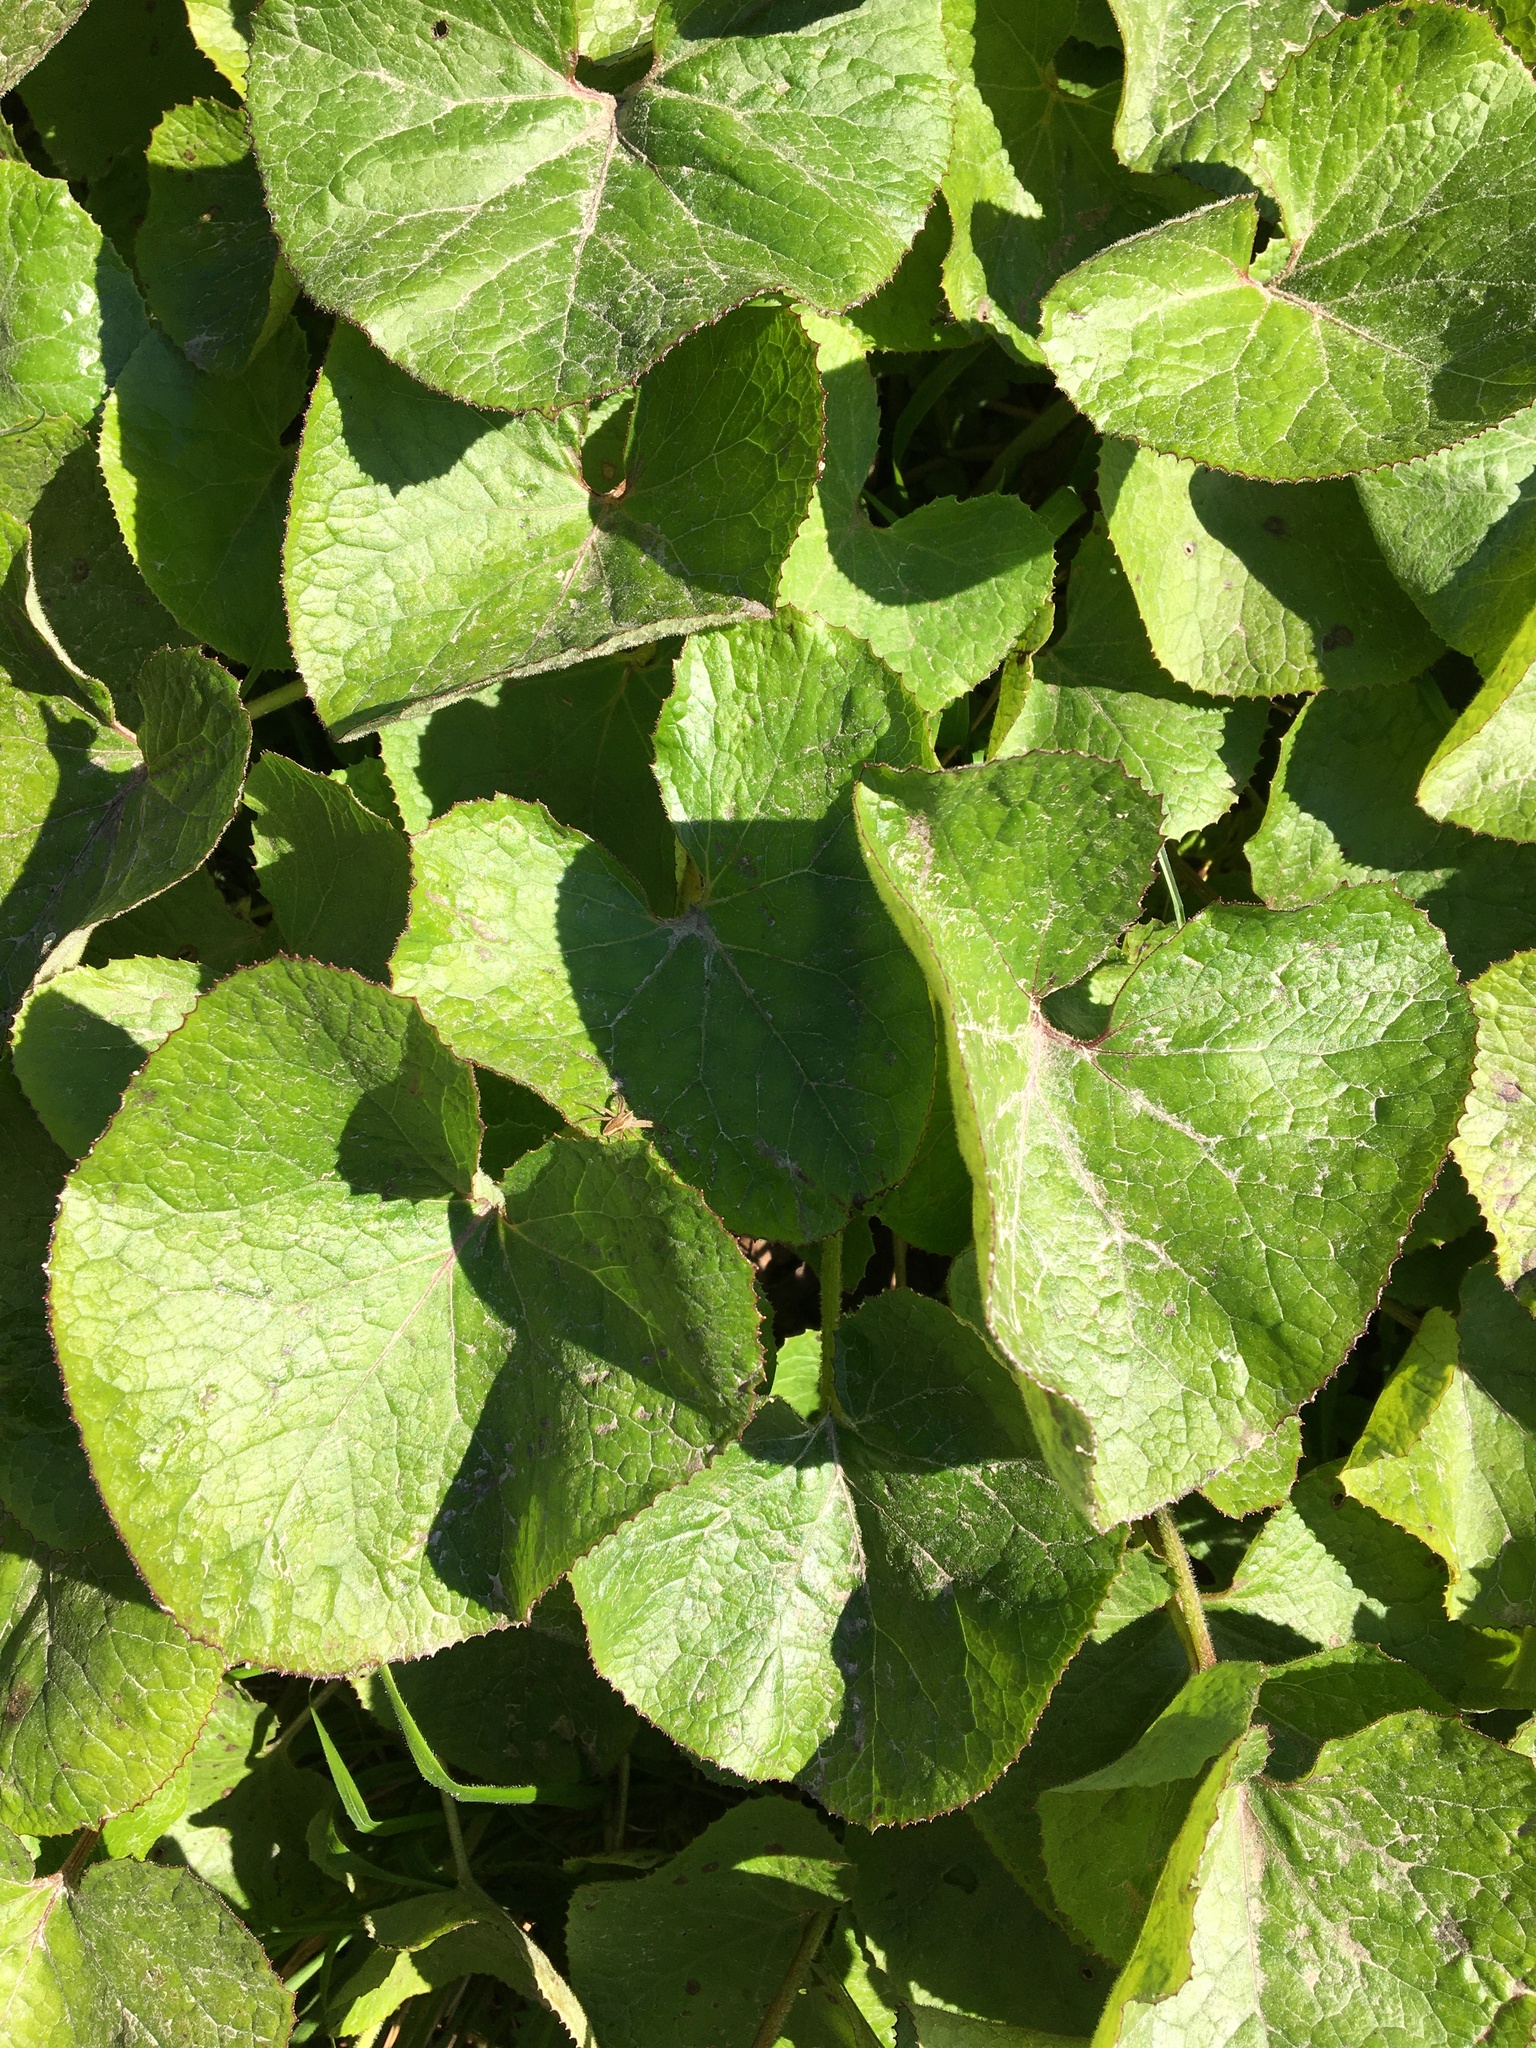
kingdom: Plantae
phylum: Tracheophyta
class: Magnoliopsida
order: Asterales
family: Asteraceae
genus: Petasites
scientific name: Petasites pyrenaicus
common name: Winter heliotrope
